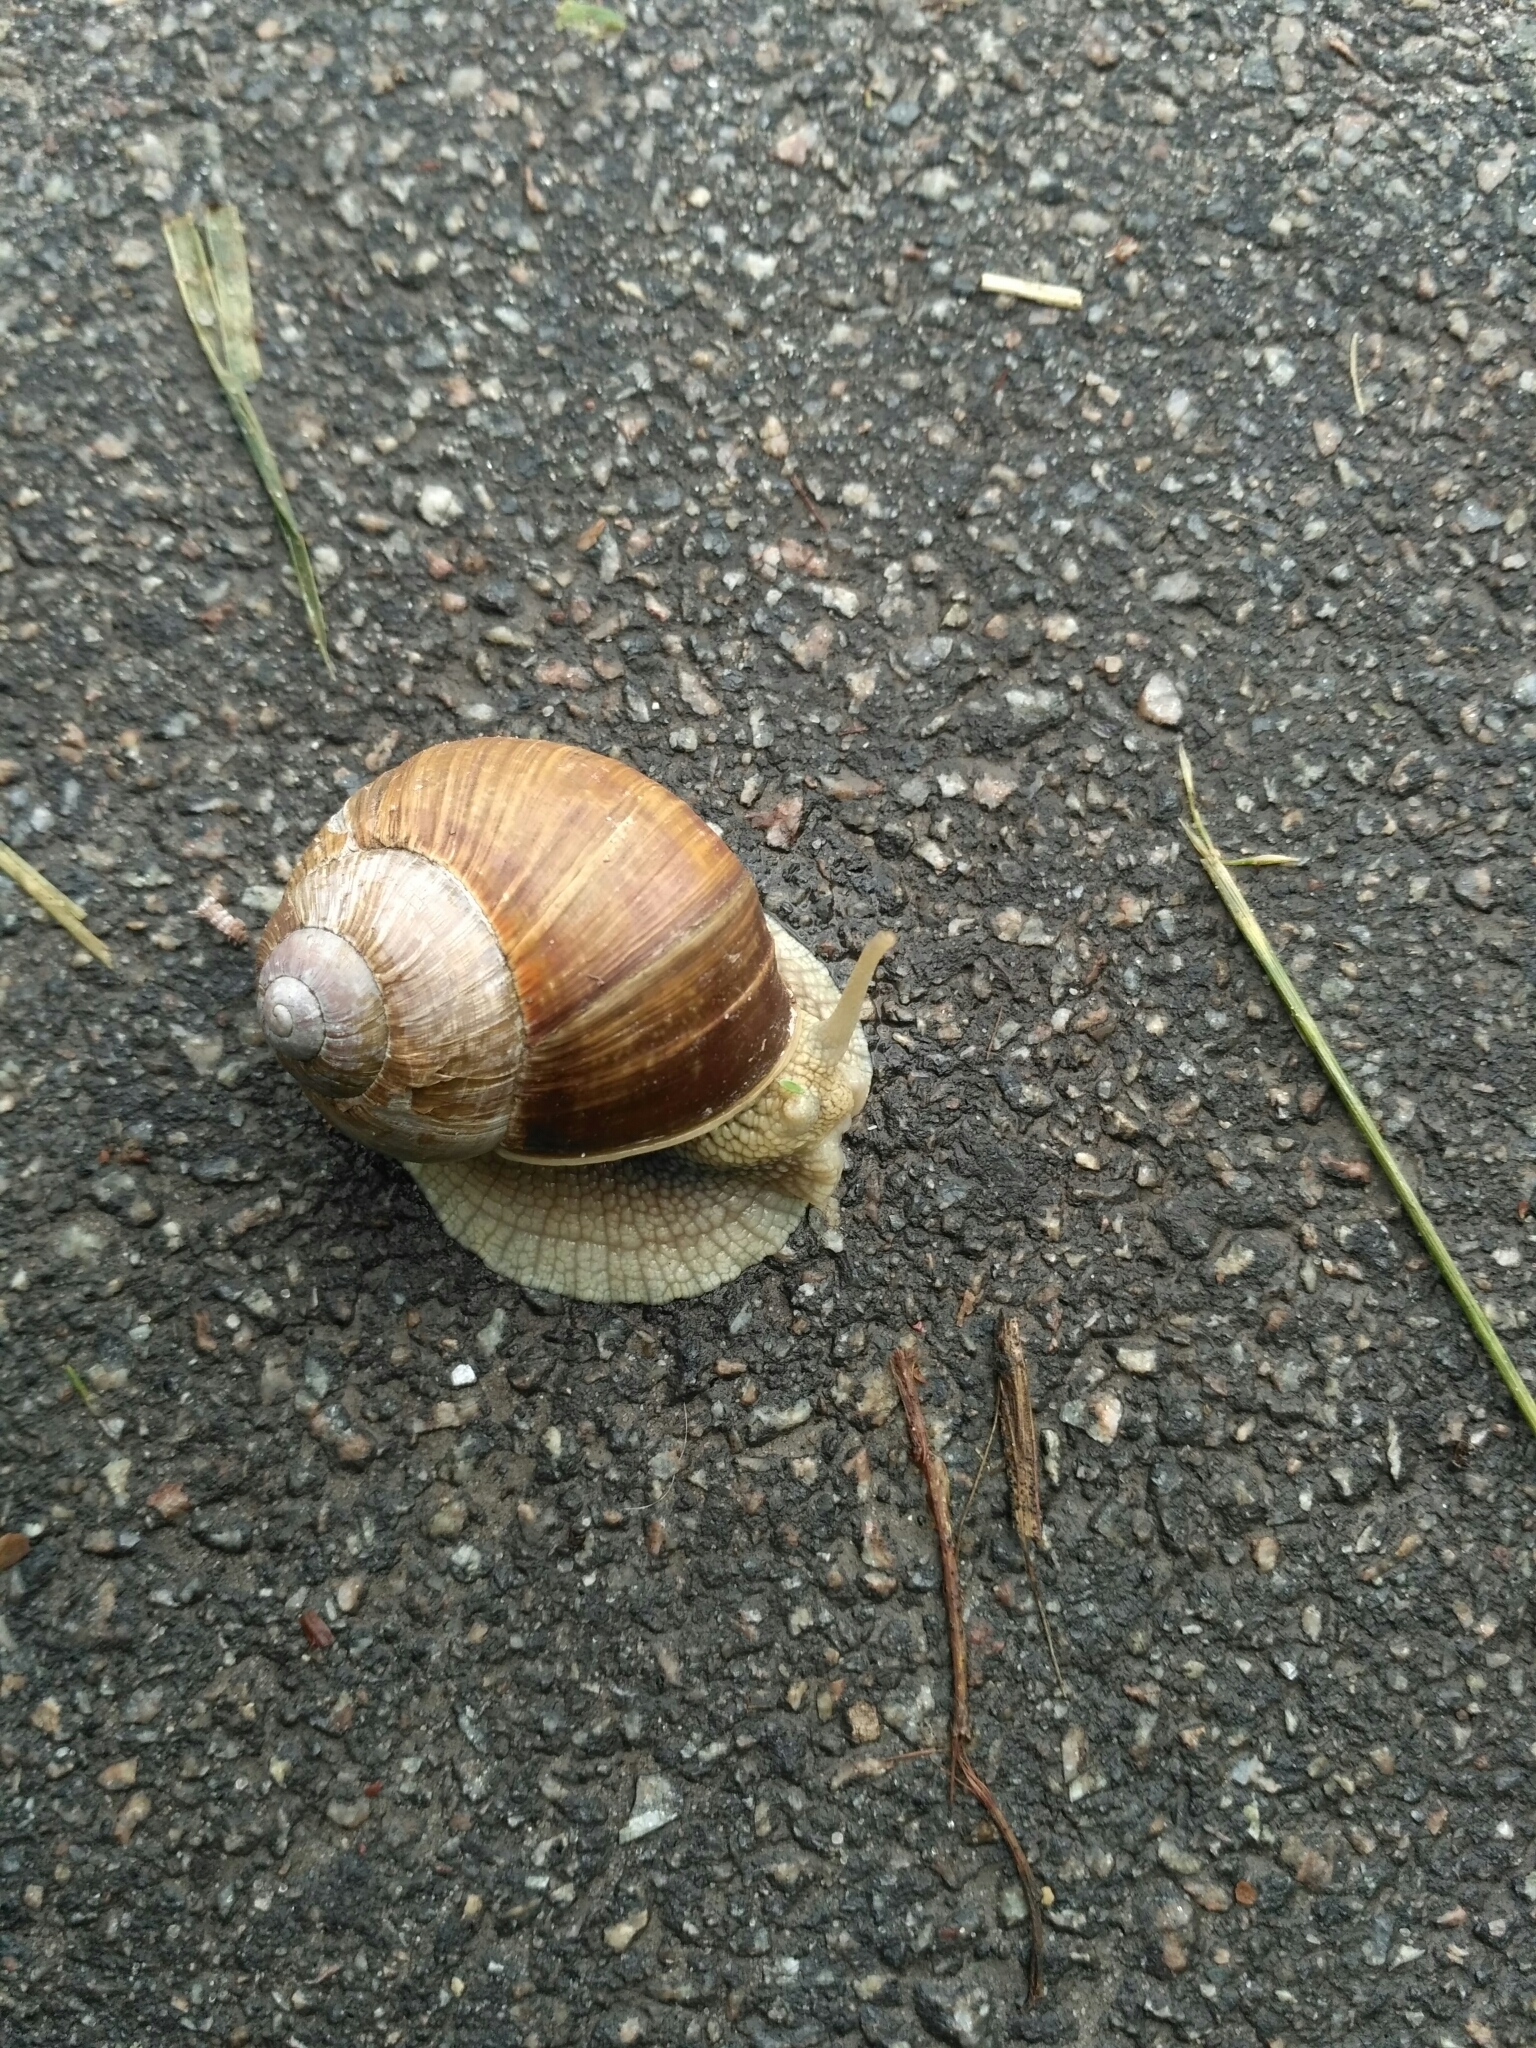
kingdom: Animalia
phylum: Mollusca
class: Gastropoda
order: Stylommatophora
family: Helicidae
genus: Helix
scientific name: Helix pomatia
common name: Roman snail
